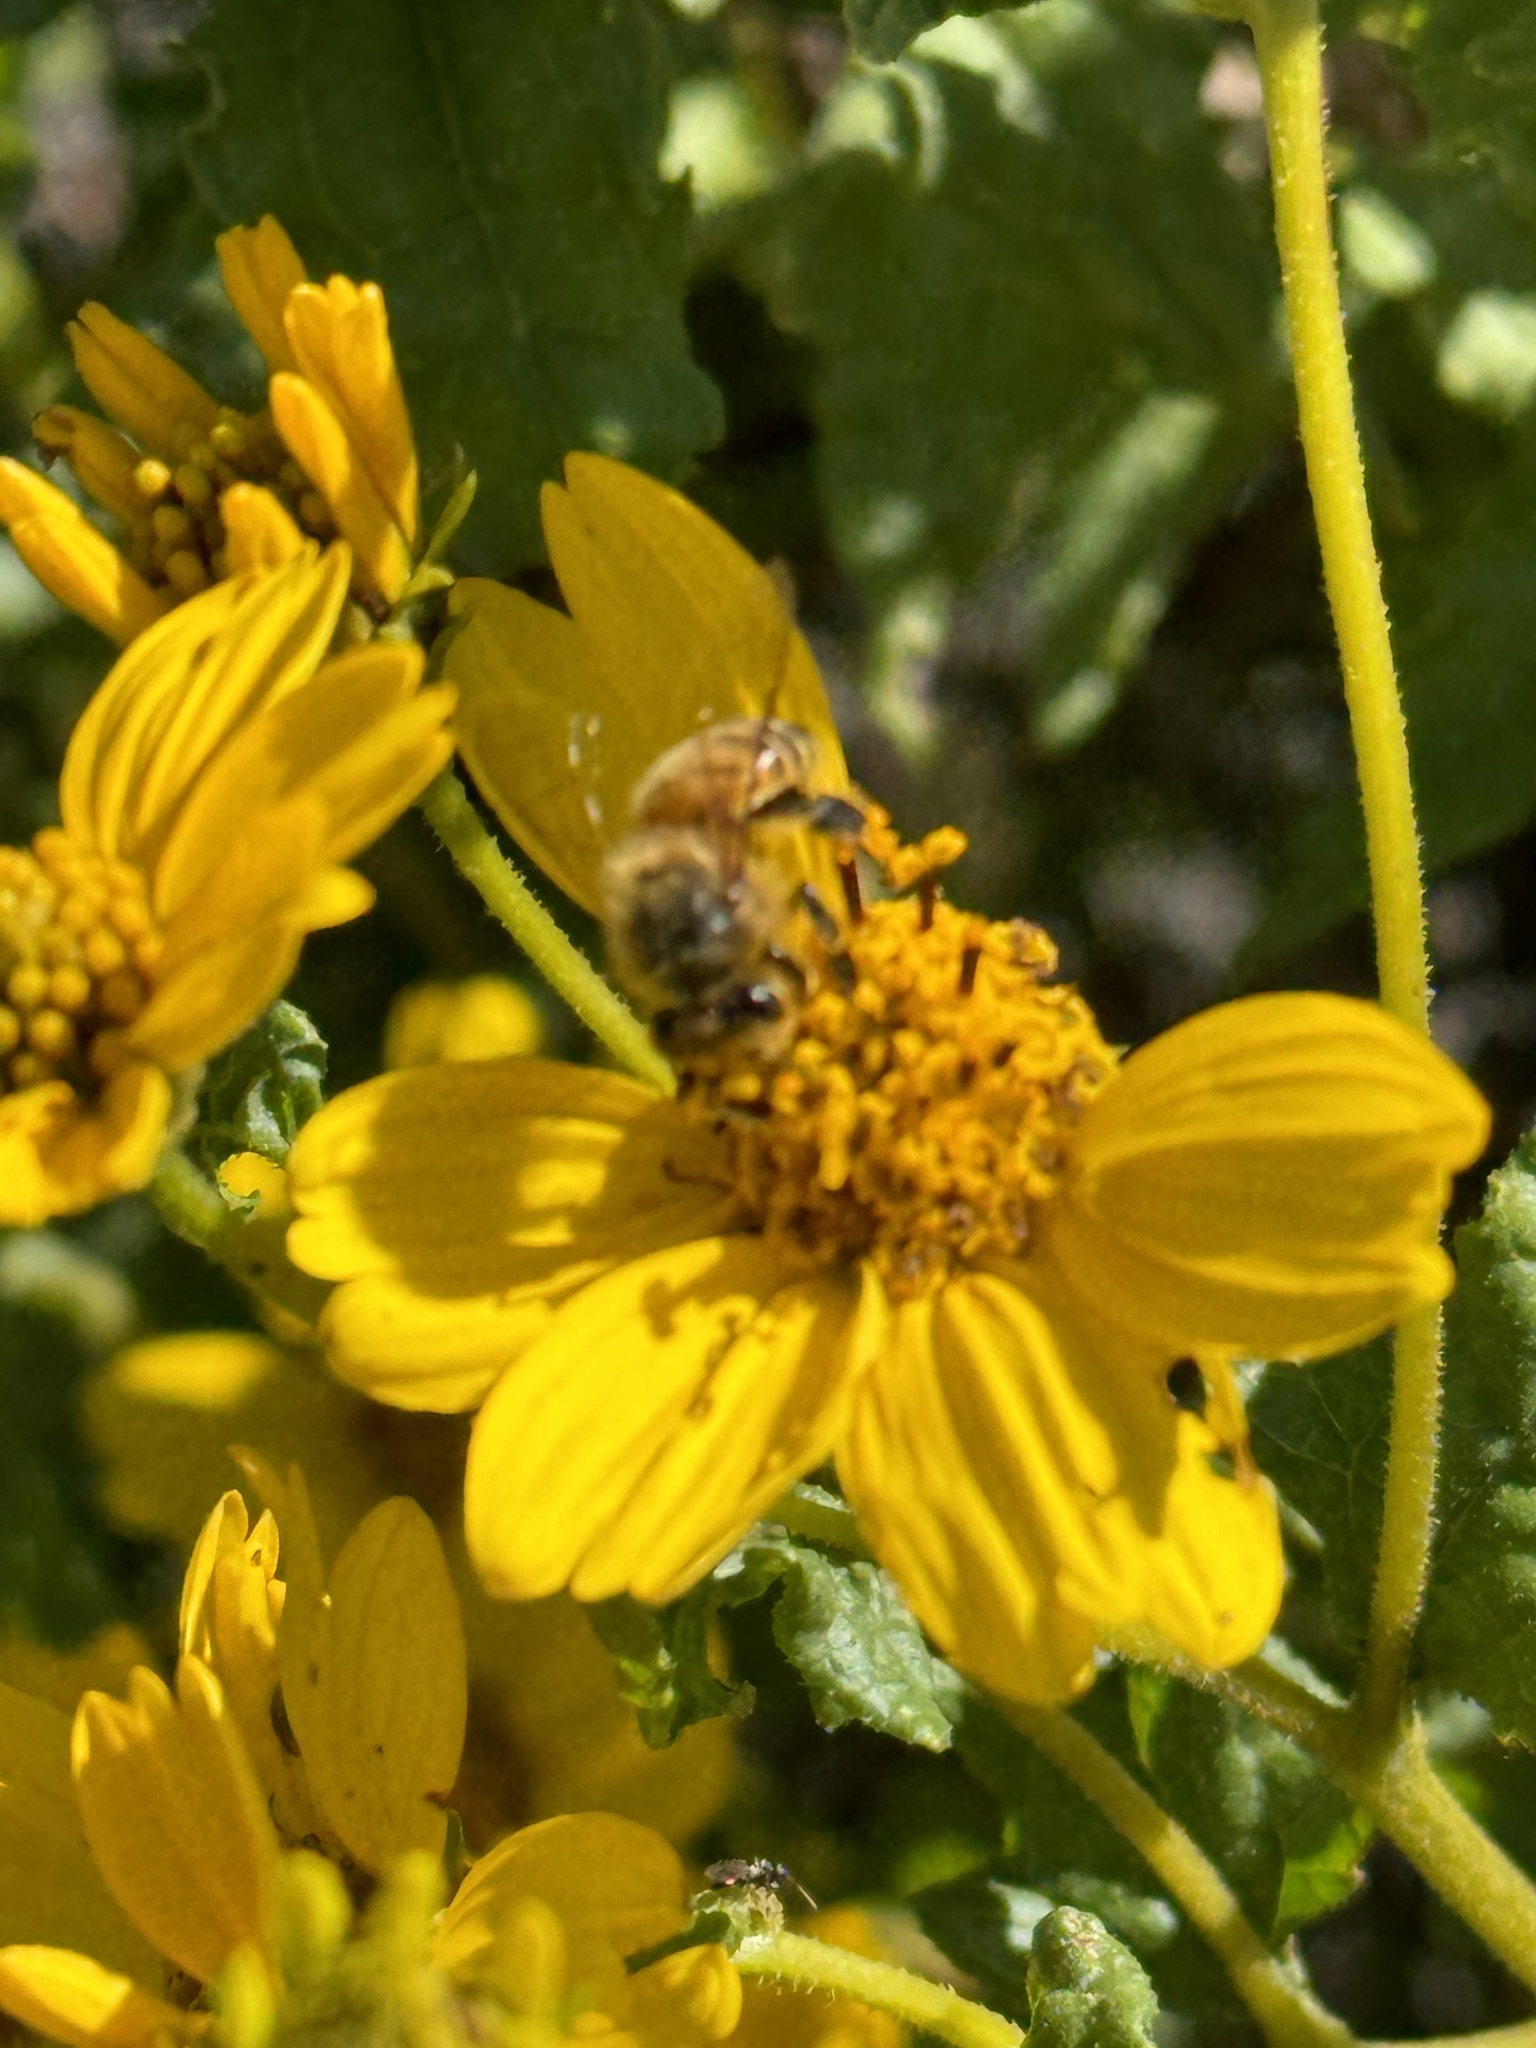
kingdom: Animalia
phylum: Arthropoda
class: Insecta
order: Hymenoptera
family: Apidae
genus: Apis
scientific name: Apis mellifera
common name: Honey bee
